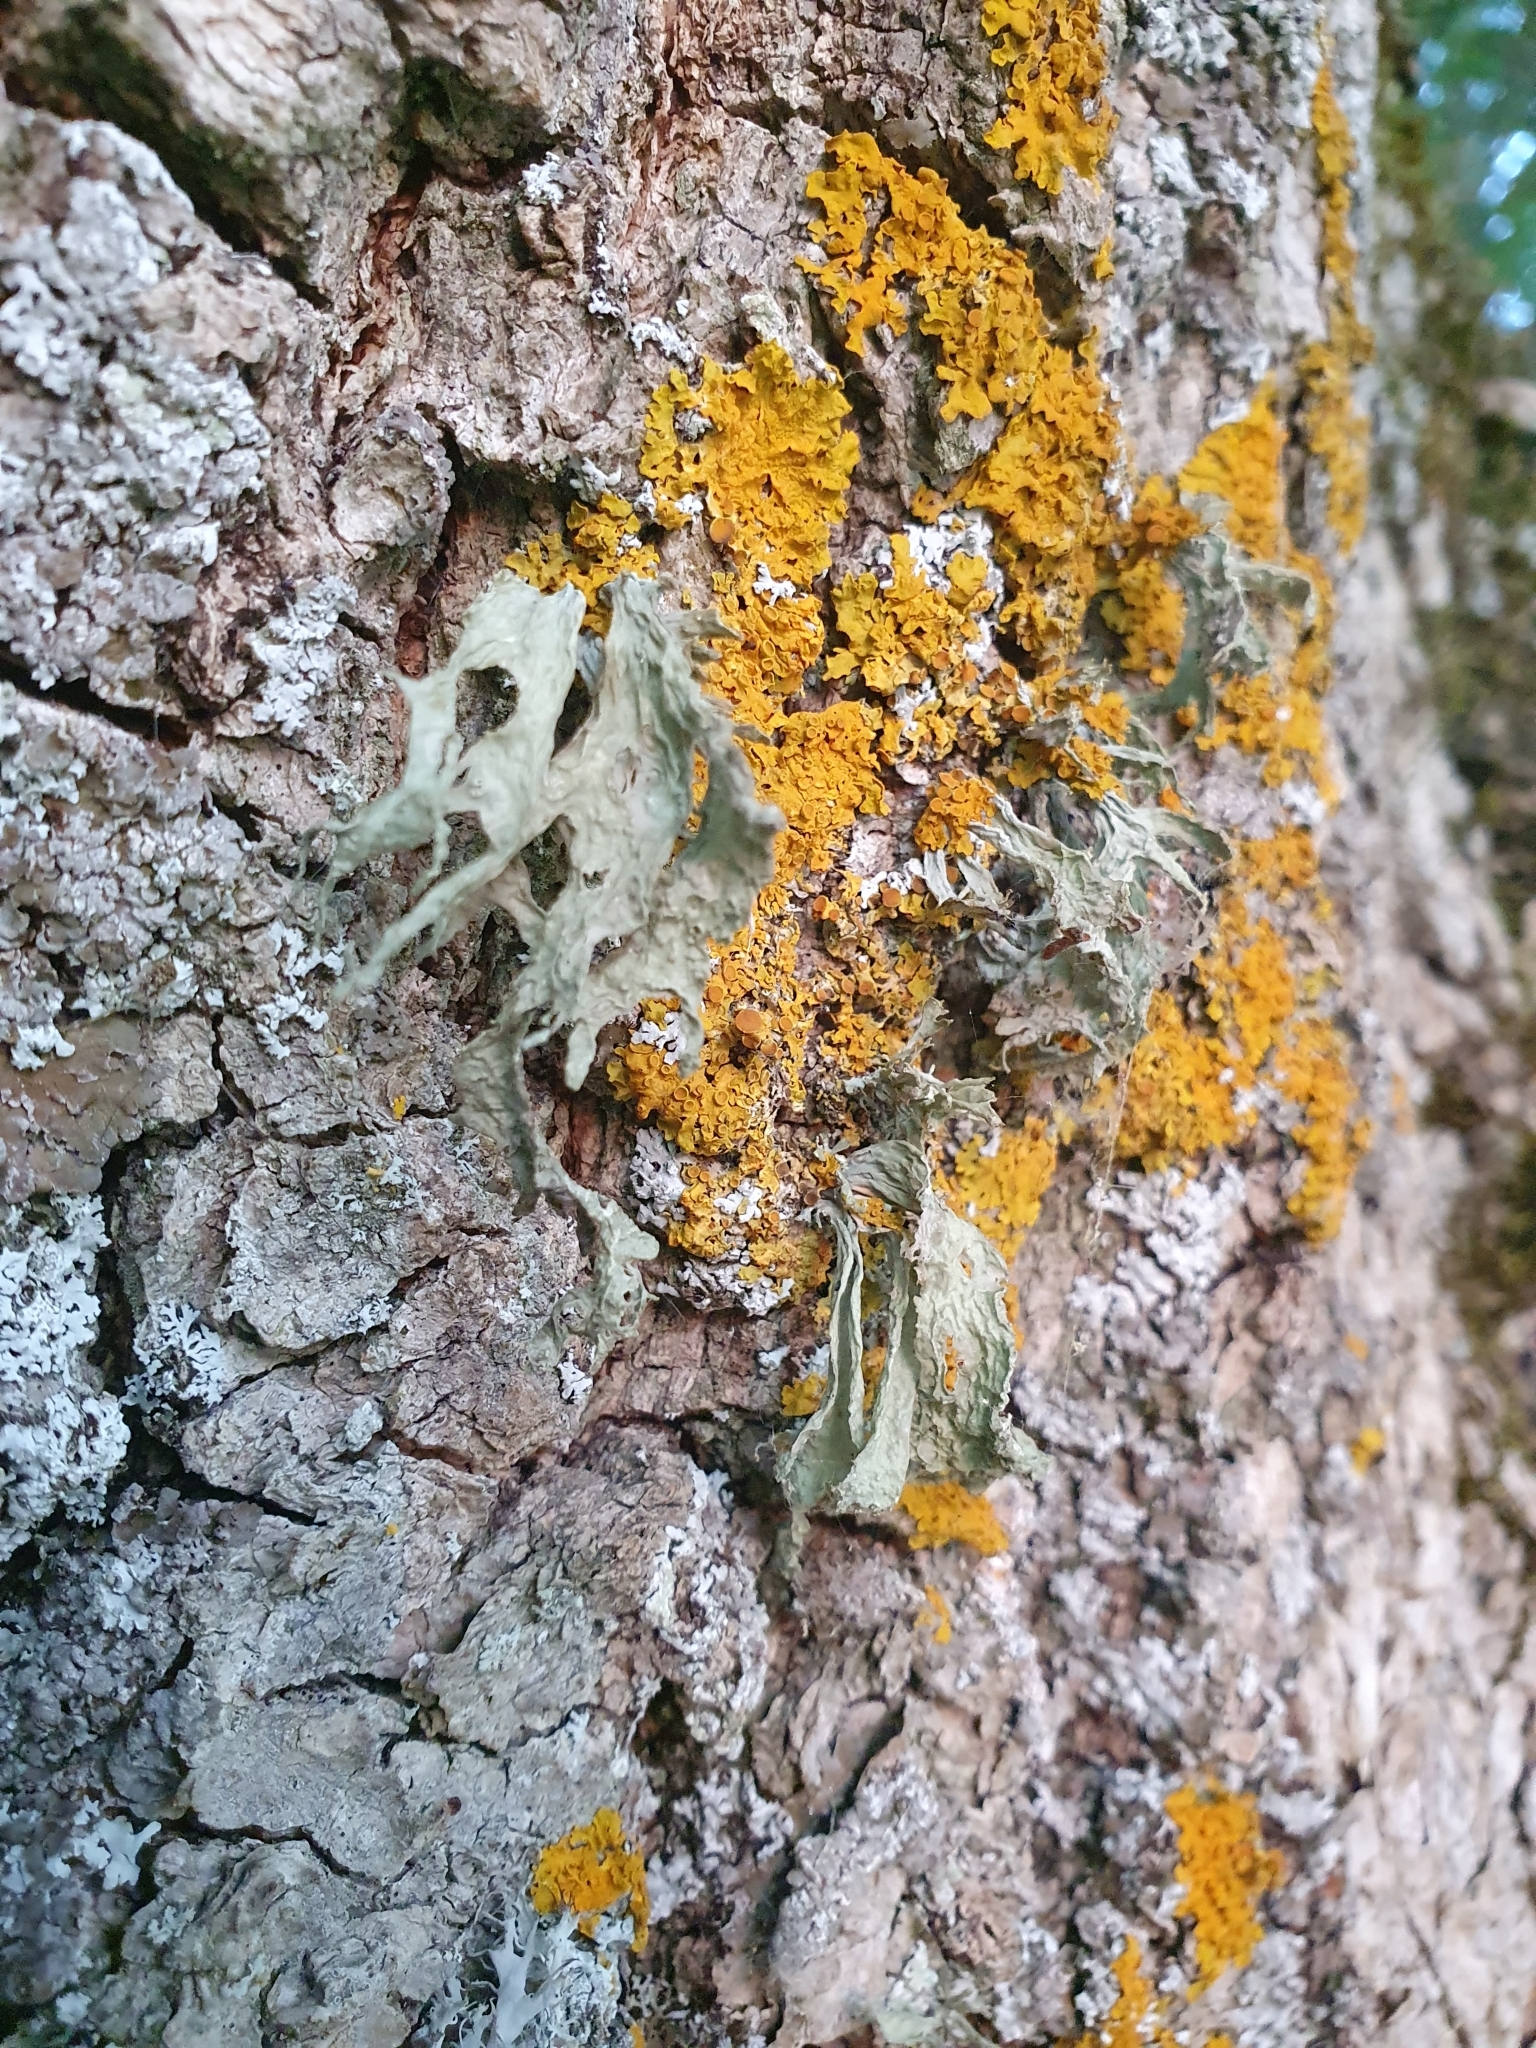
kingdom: Fungi
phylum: Ascomycota
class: Lecanoromycetes
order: Lecanorales
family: Ramalinaceae
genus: Ramalina
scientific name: Ramalina fraxinea
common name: Cartilage lichen
